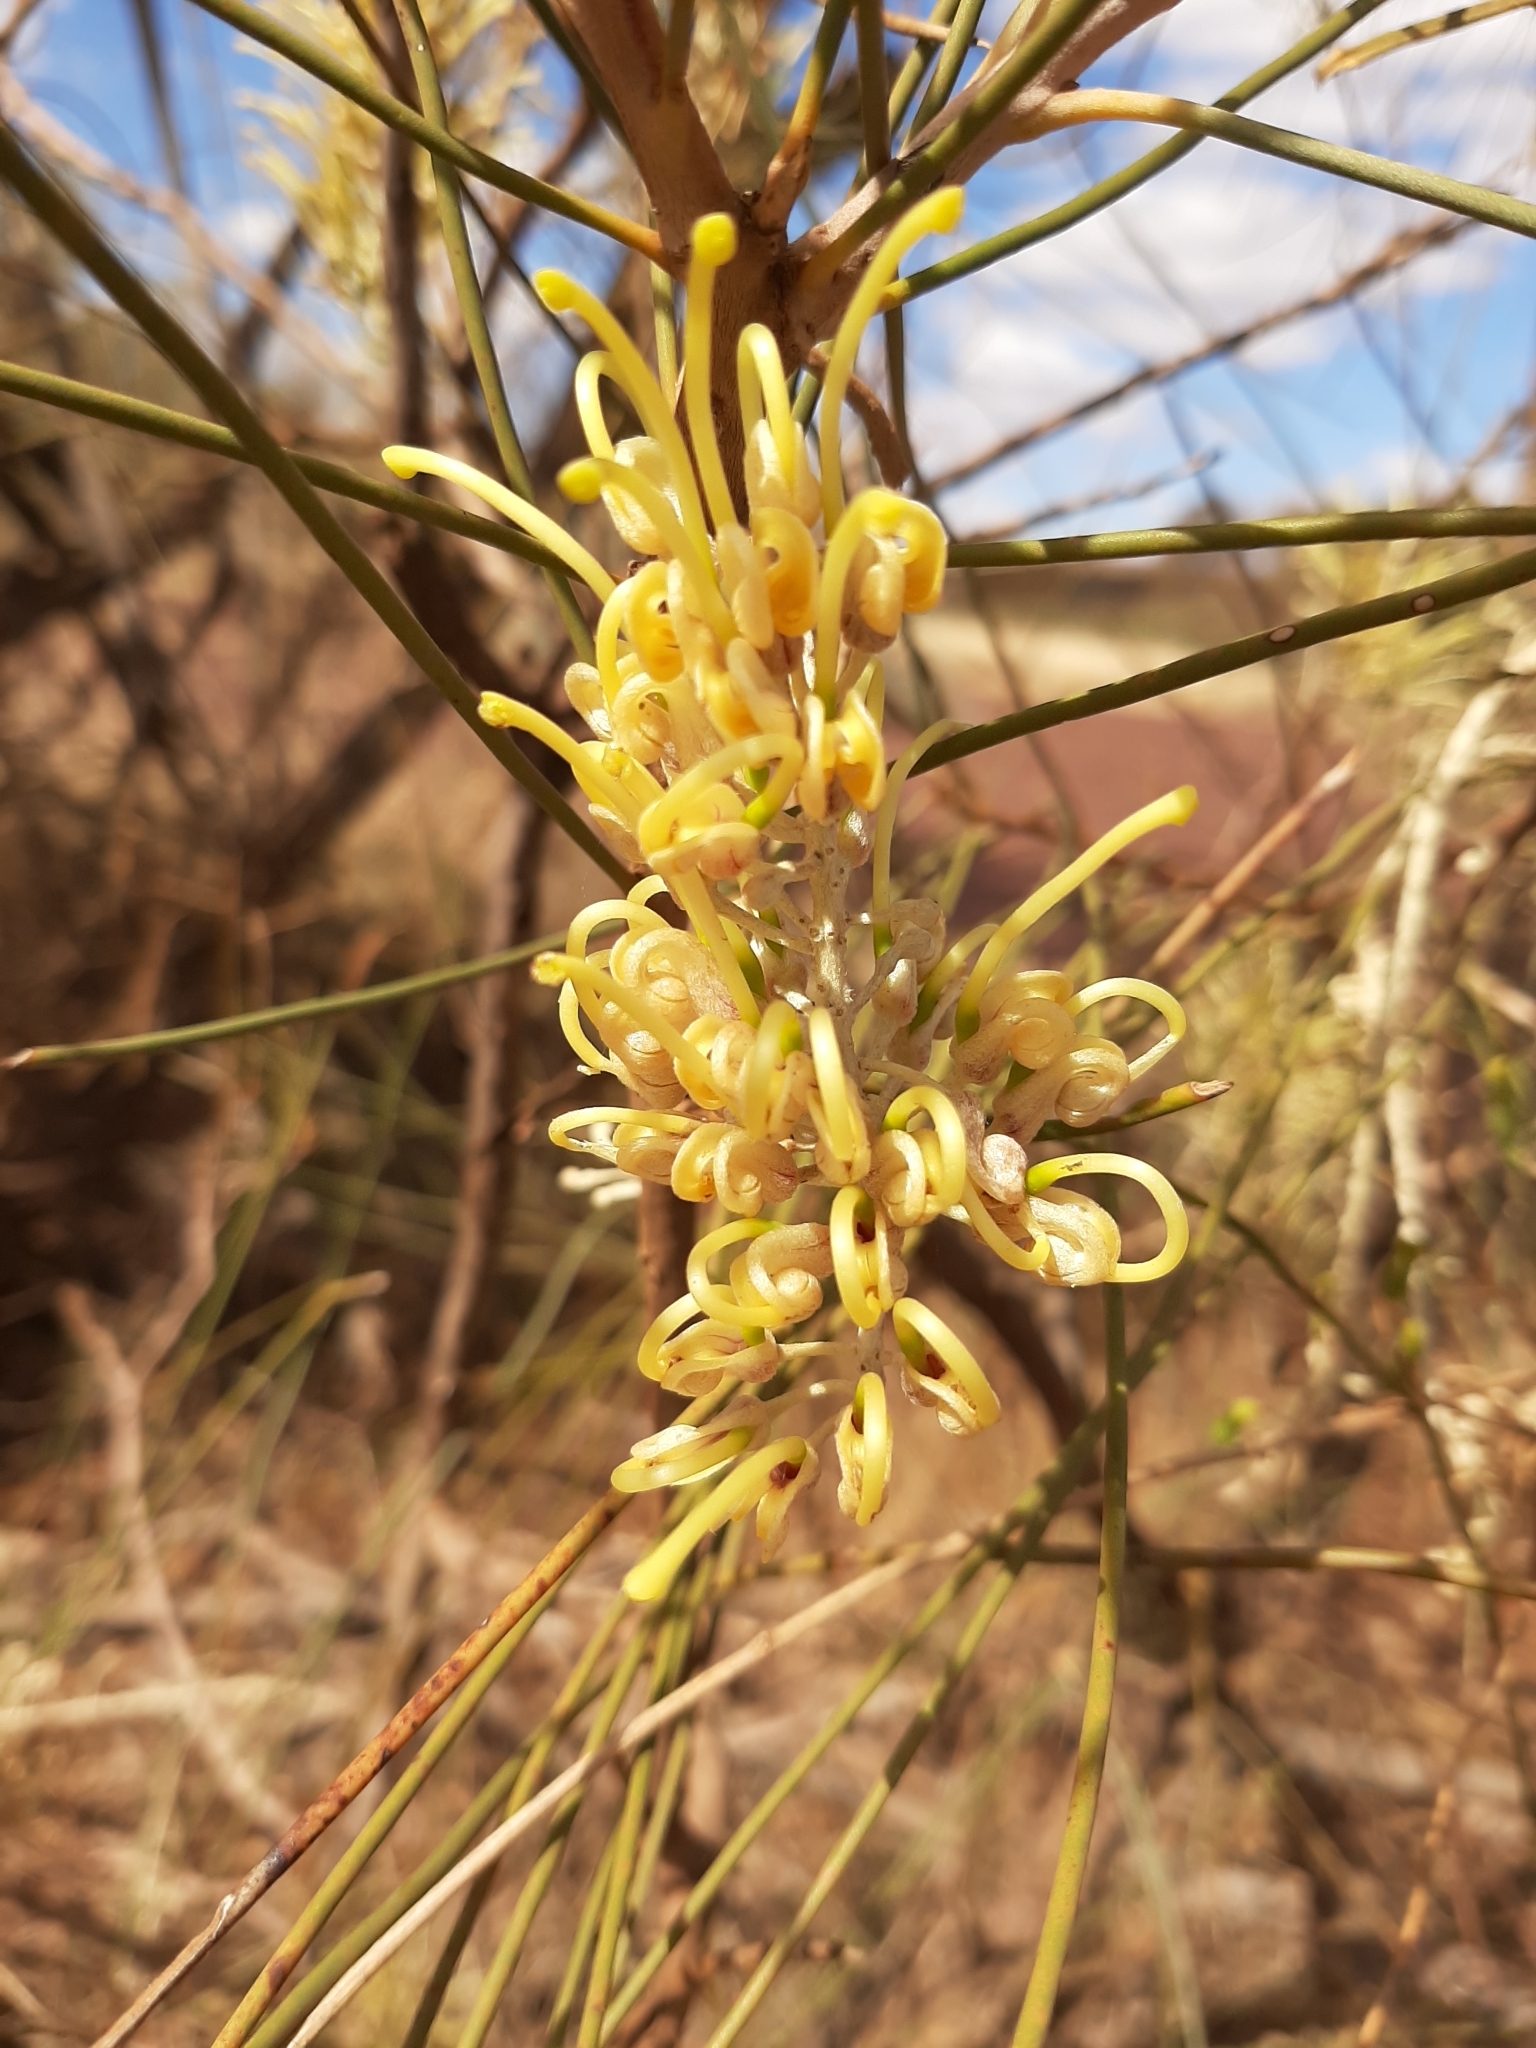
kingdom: Plantae
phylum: Tracheophyta
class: Magnoliopsida
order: Proteales
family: Proteaceae
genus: Hakea
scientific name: Hakea lorea
